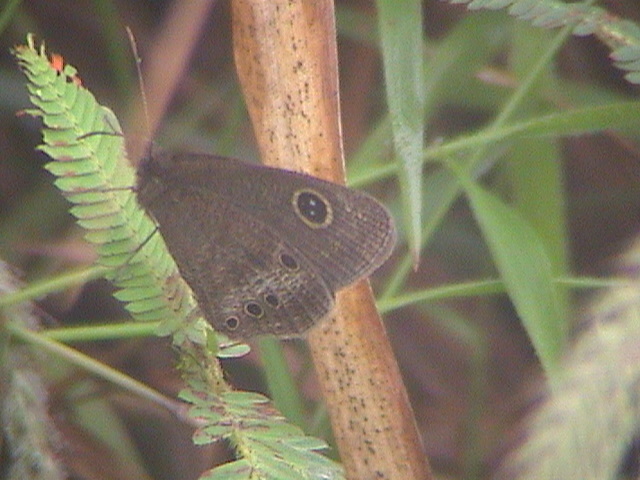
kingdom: Animalia
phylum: Arthropoda
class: Insecta
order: Lepidoptera
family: Nymphalidae
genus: Ypthima
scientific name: Ypthima ypthimoides
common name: Palni four-ring
